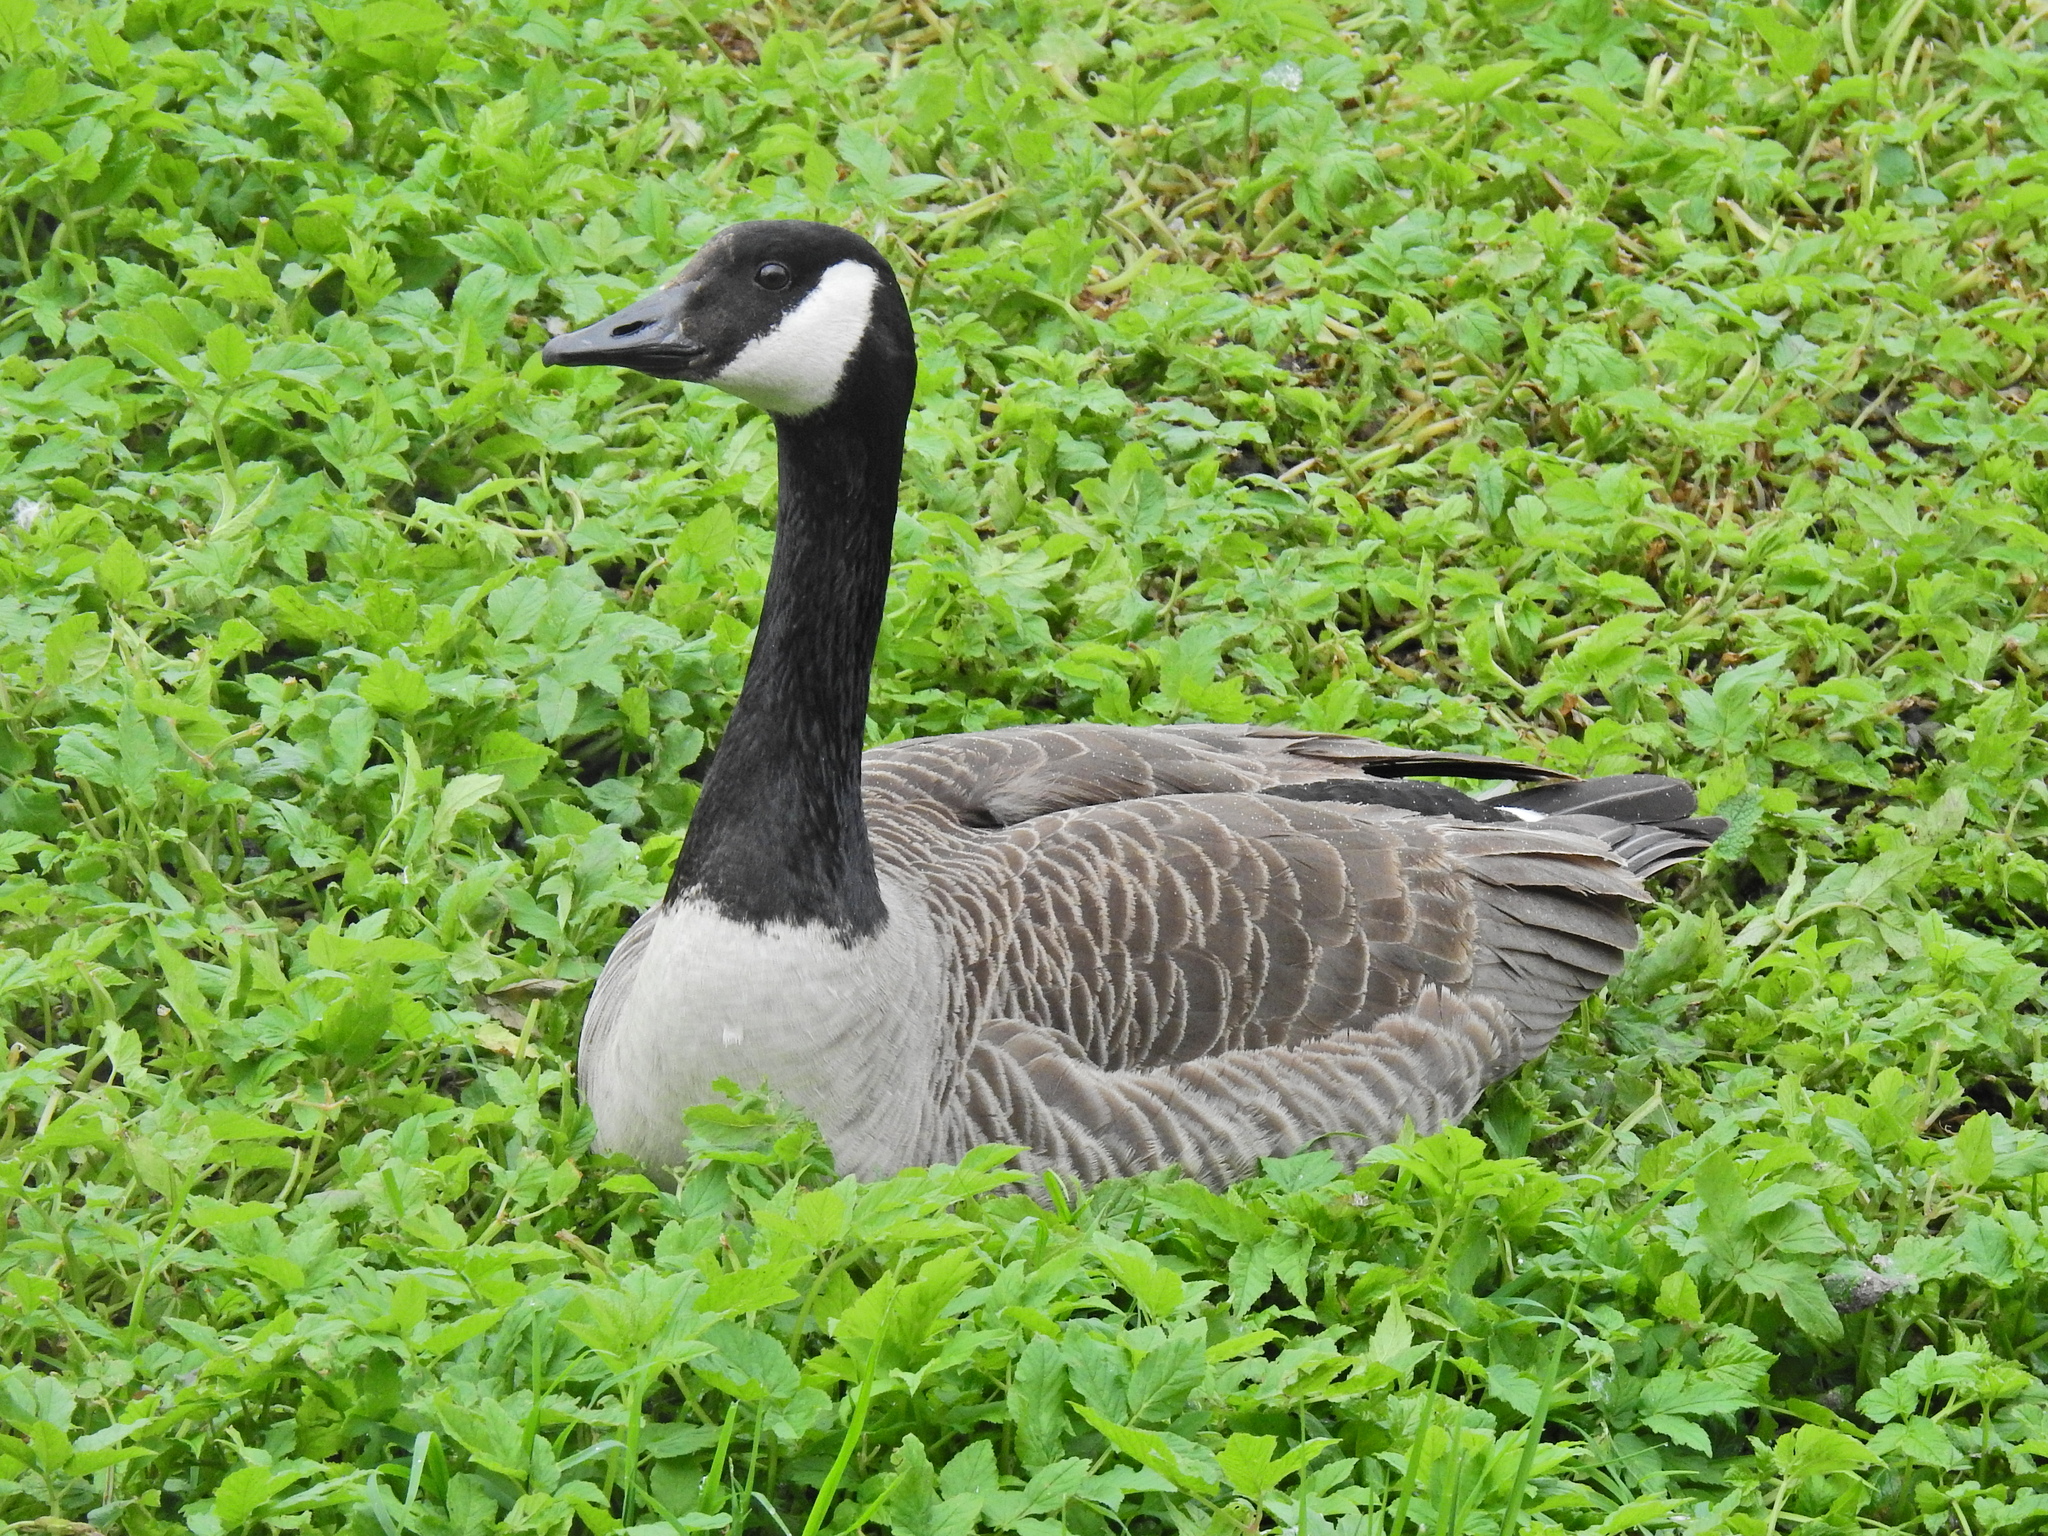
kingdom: Animalia
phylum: Chordata
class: Aves
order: Anseriformes
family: Anatidae
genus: Branta
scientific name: Branta canadensis
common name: Canada goose
